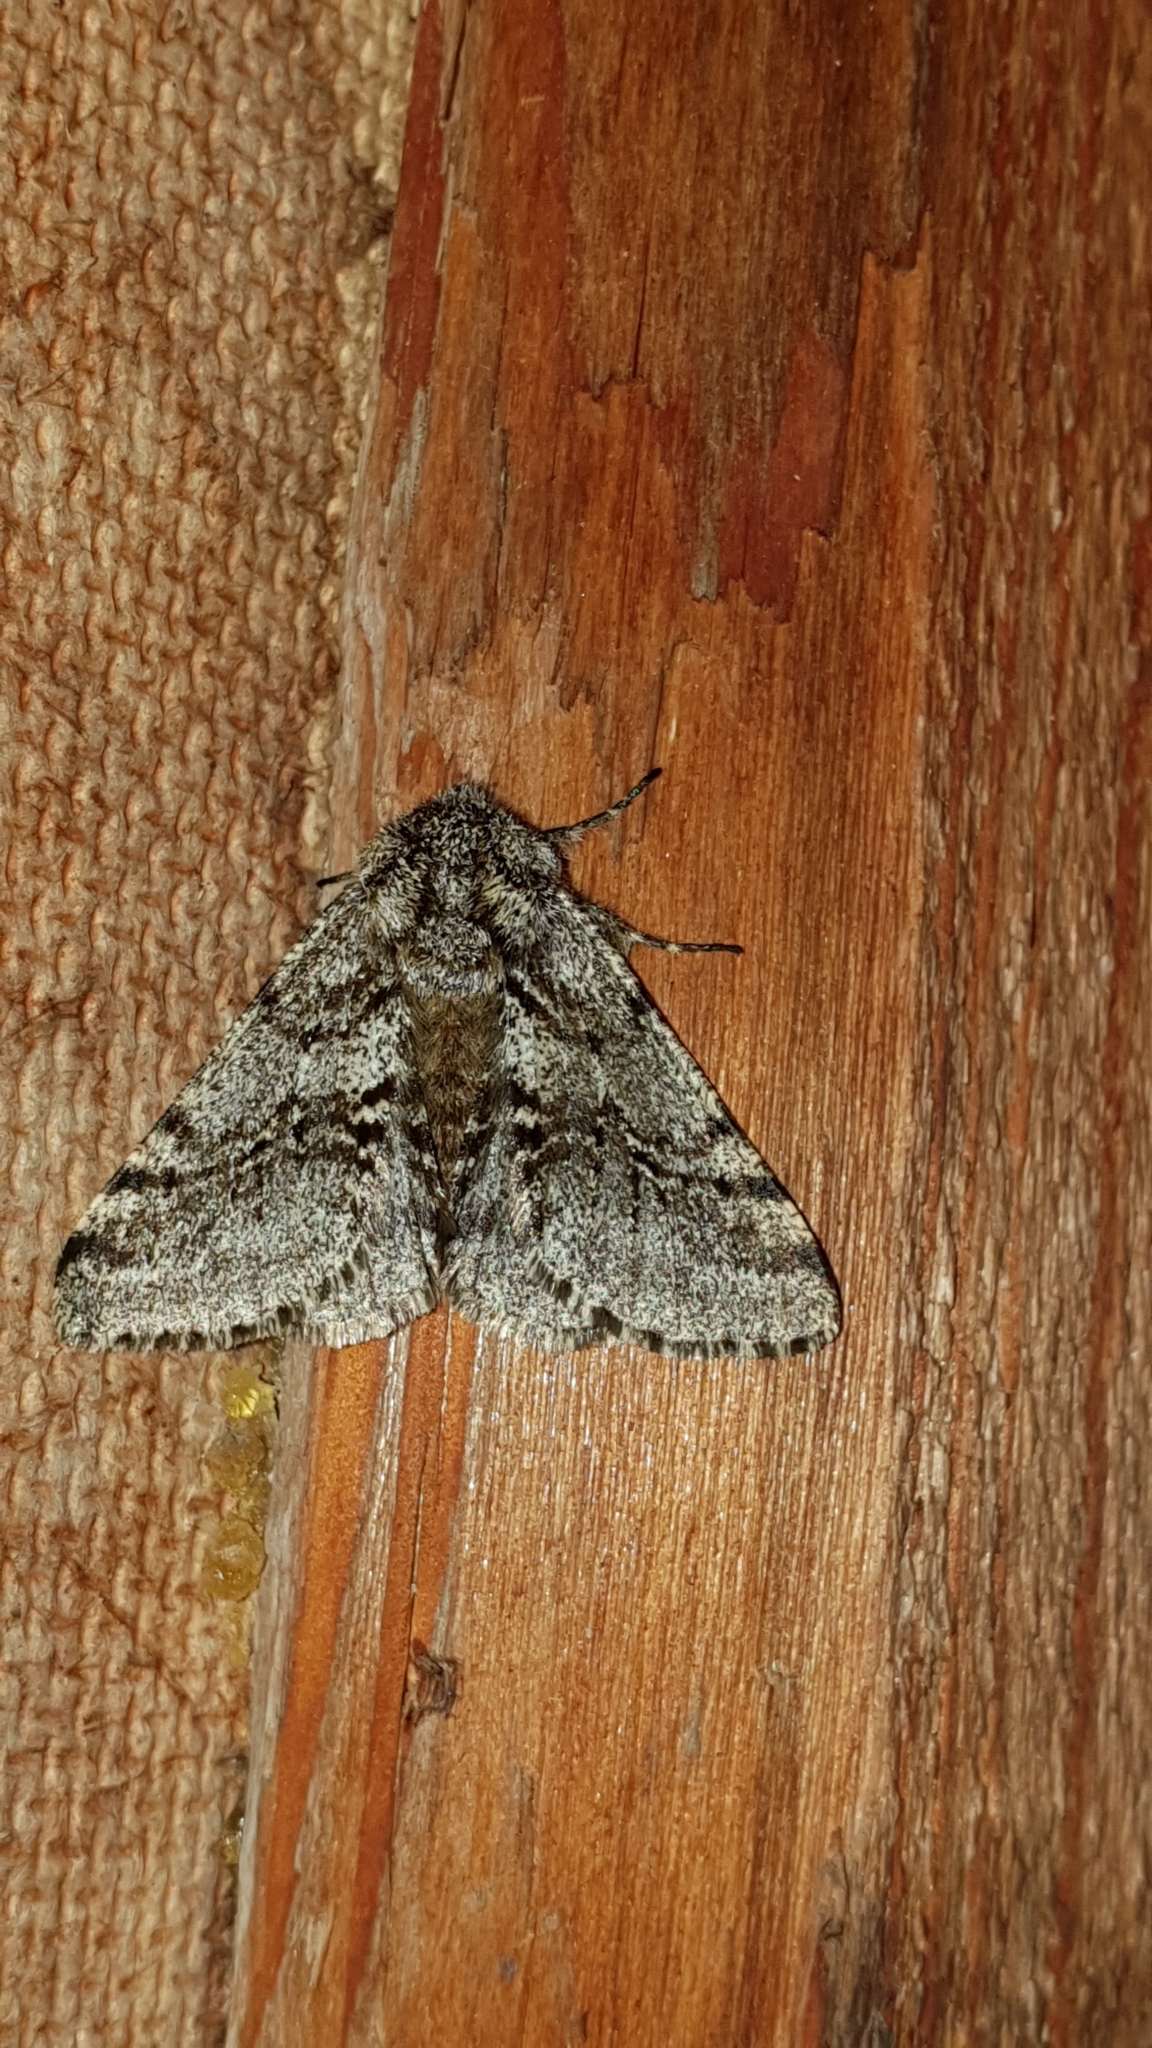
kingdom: Animalia
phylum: Arthropoda
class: Insecta
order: Lepidoptera
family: Geometridae
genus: Lycia
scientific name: Lycia hirtaria
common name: Brindled beauty
